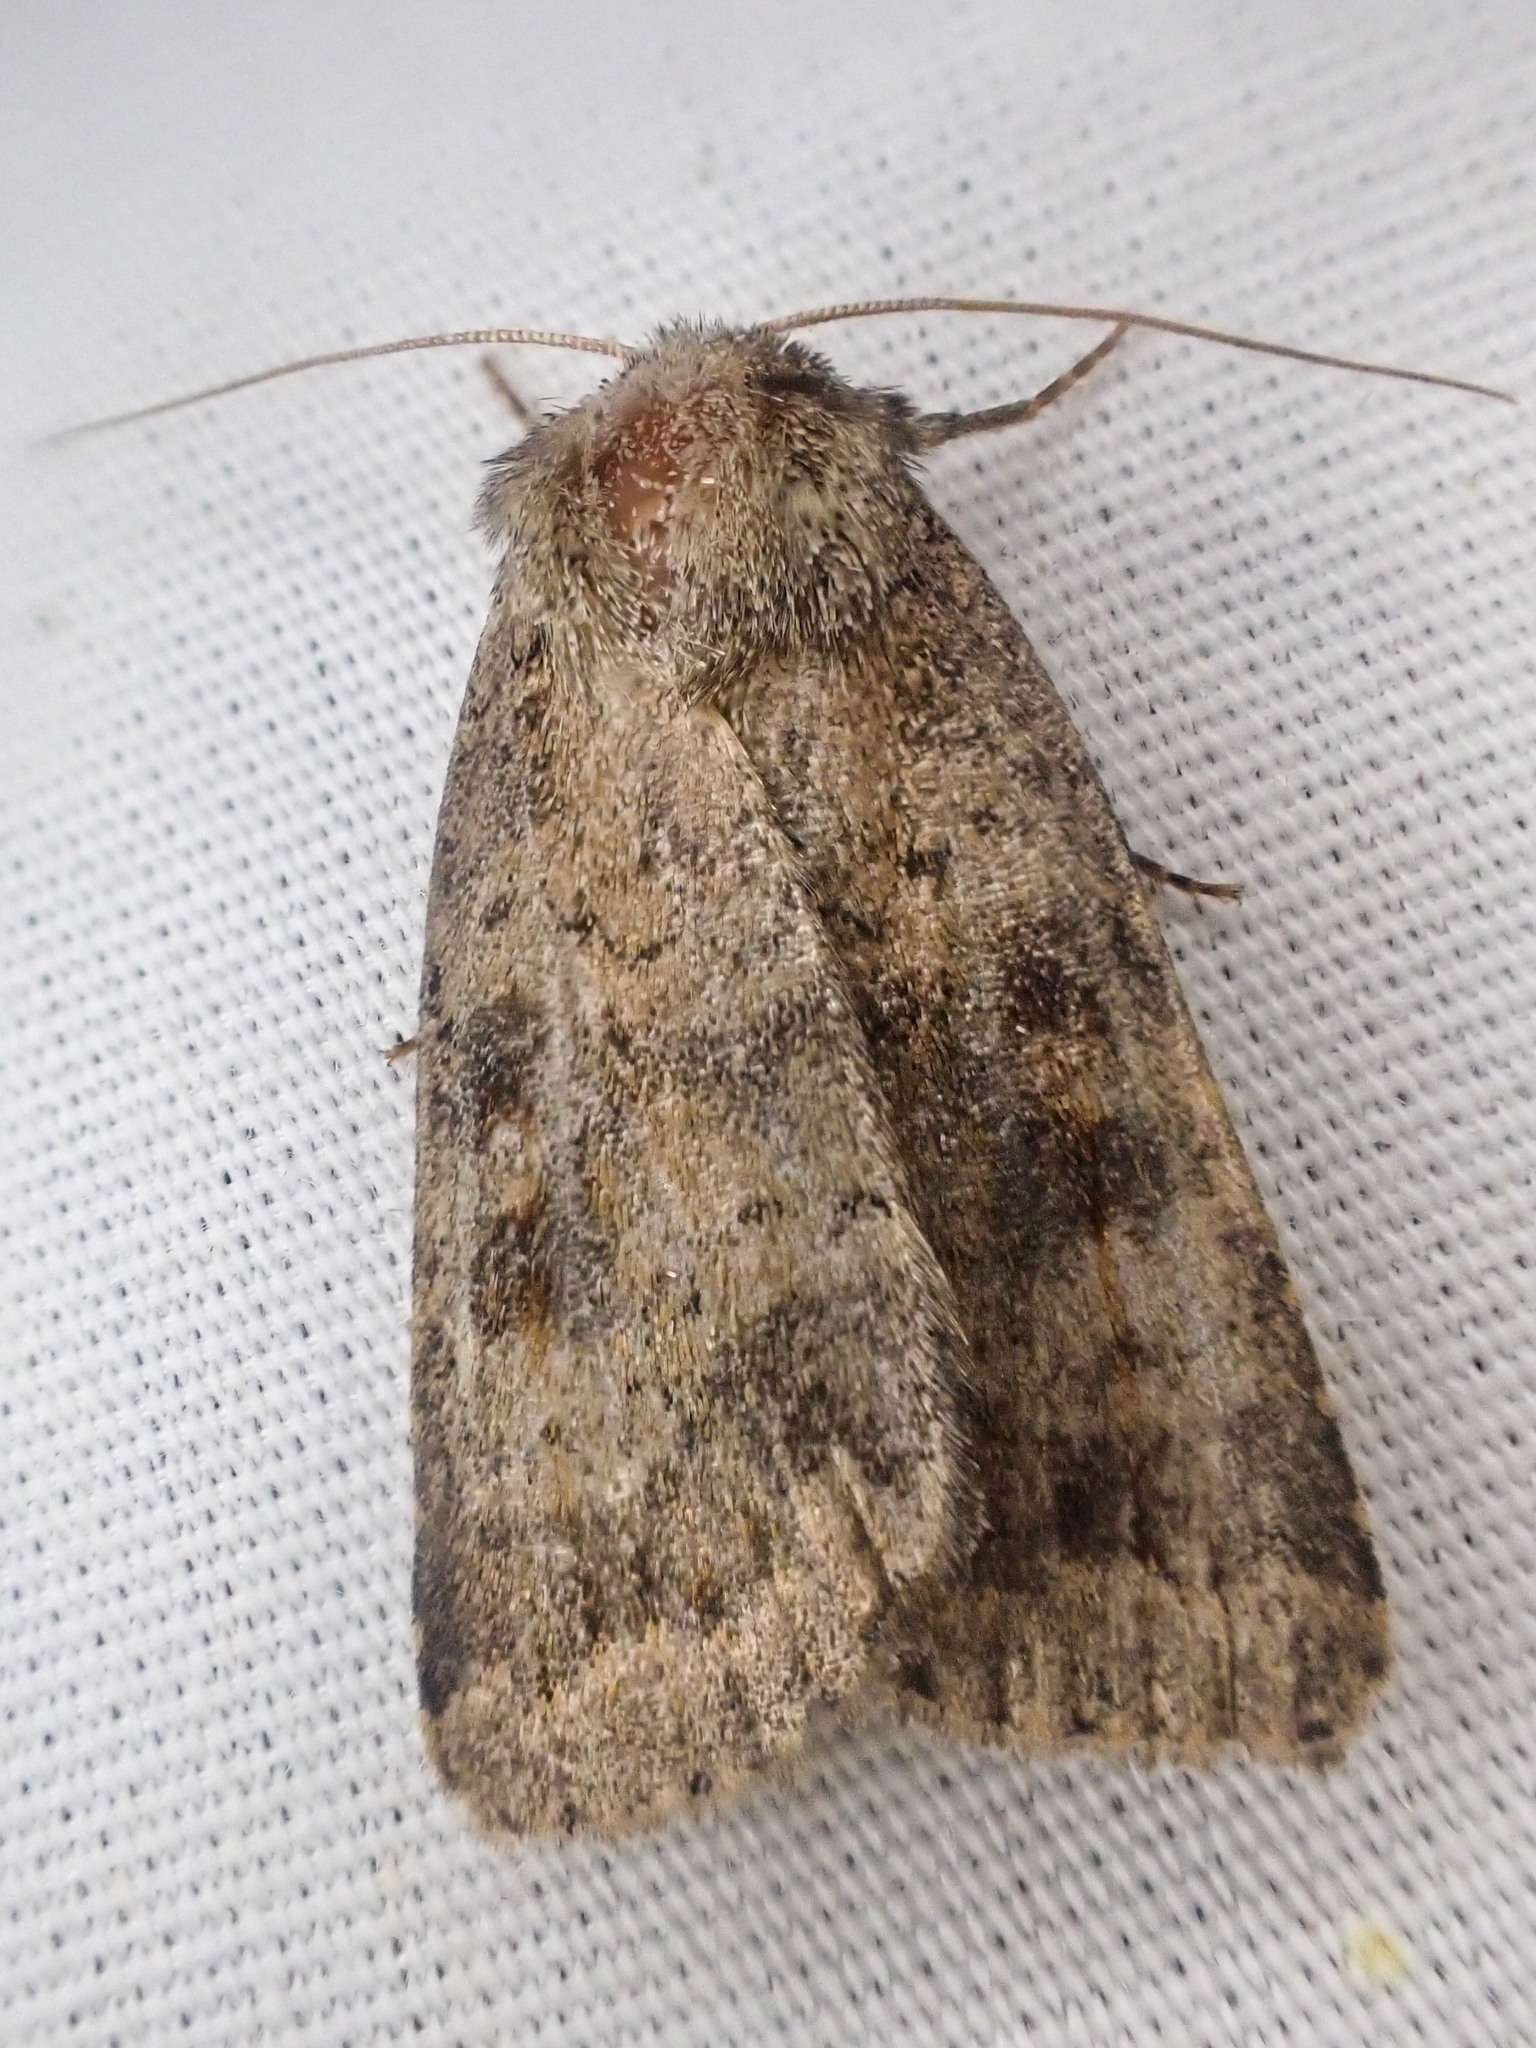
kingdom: Animalia
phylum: Arthropoda
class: Insecta
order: Lepidoptera
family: Noctuidae
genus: Caradrina
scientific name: Caradrina morpheus
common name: Mottled rustic
